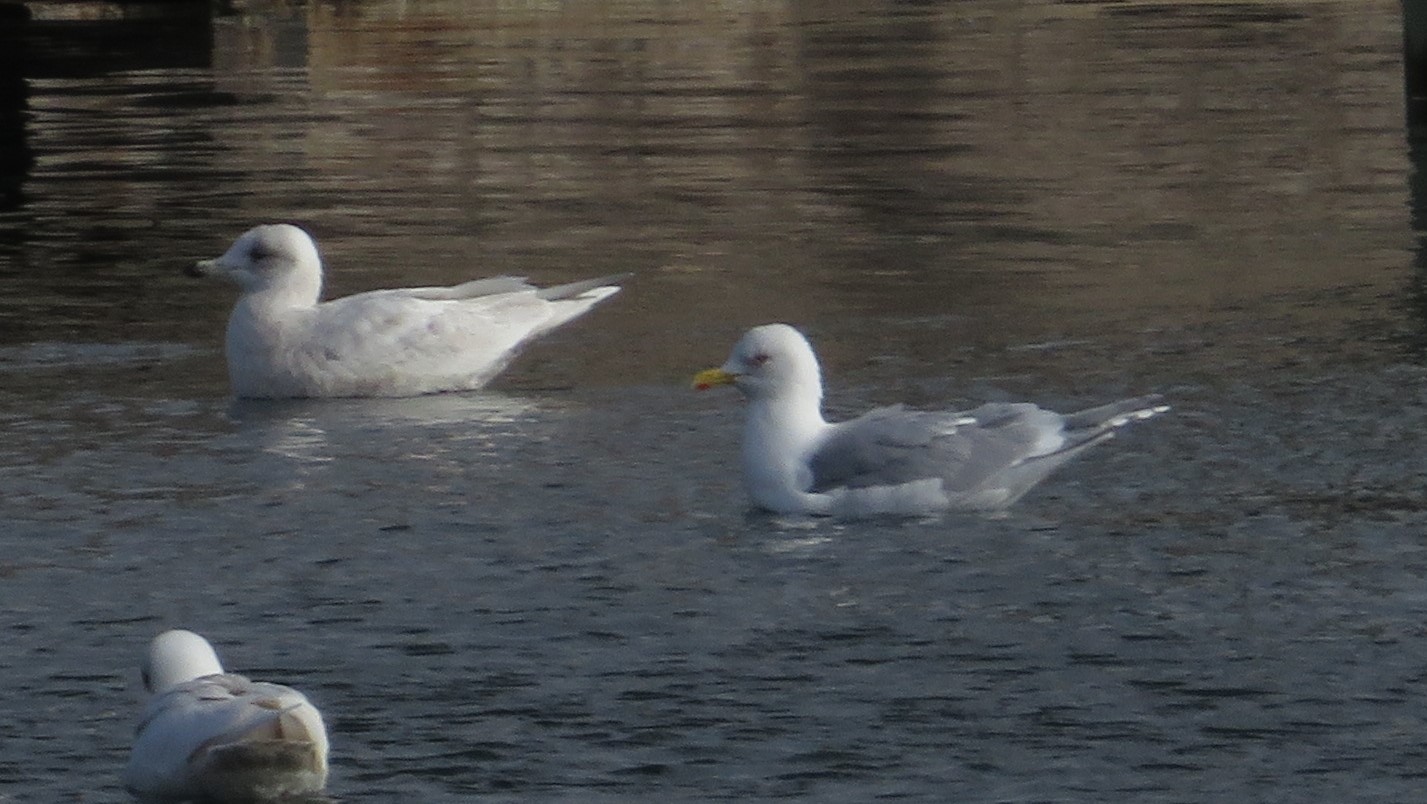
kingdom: Animalia
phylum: Chordata
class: Aves
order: Charadriiformes
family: Laridae
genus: Larus
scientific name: Larus glaucoides
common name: Iceland gull
